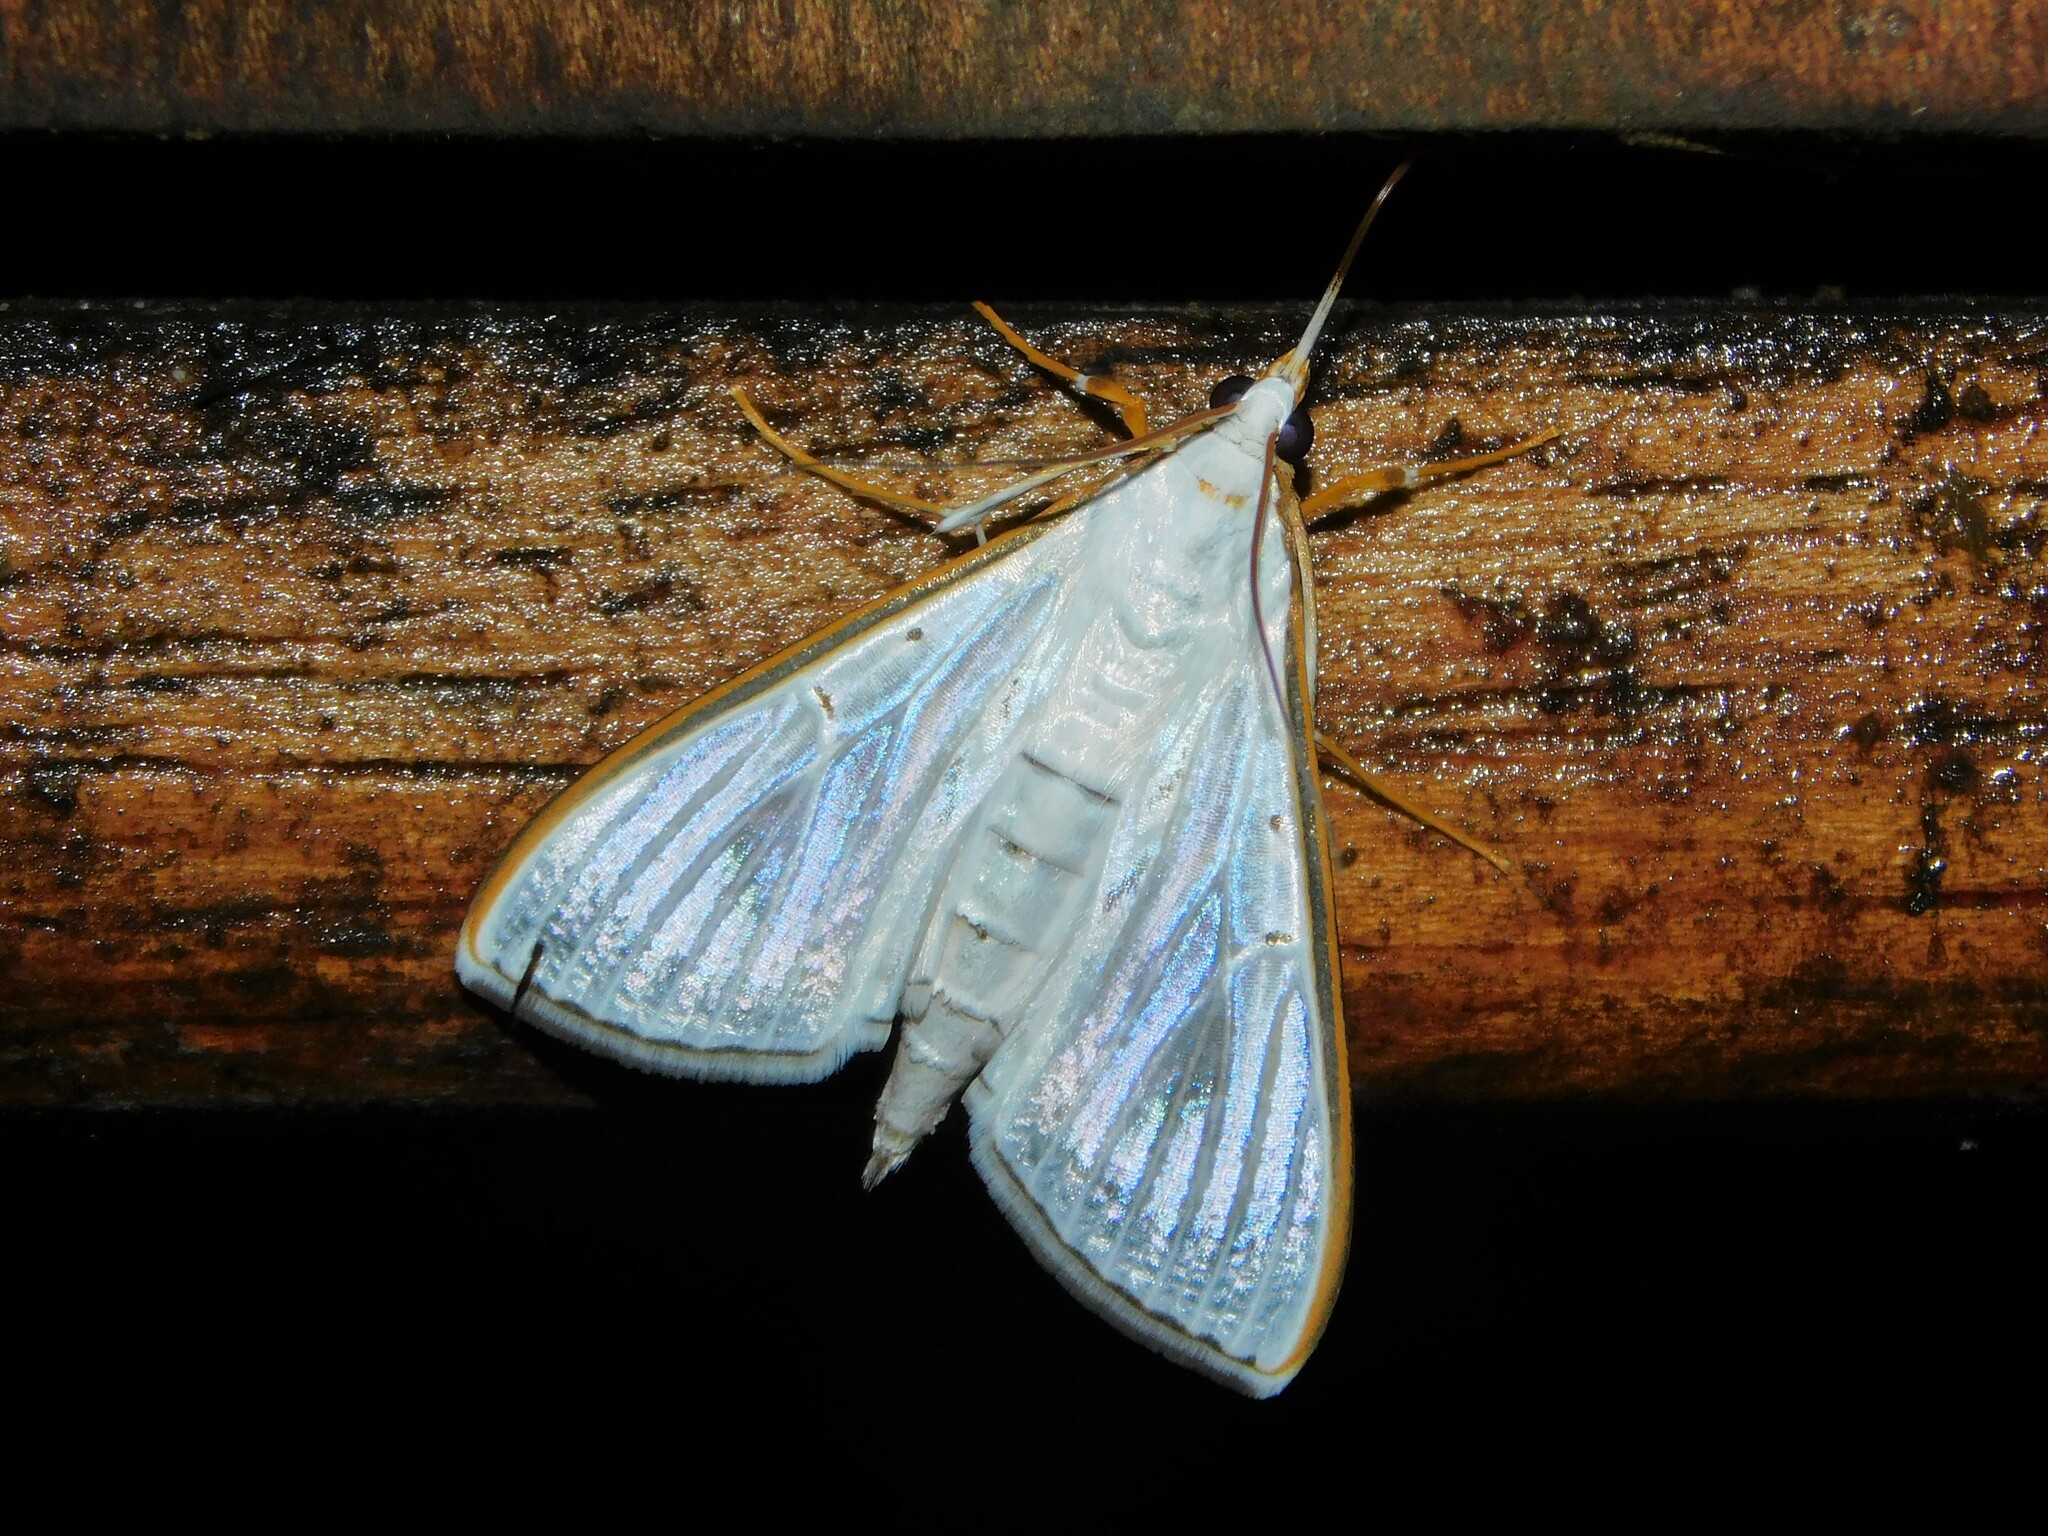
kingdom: Animalia
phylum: Arthropoda
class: Insecta
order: Lepidoptera
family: Crambidae
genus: Palpita
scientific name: Palpita vitrealis
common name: Olive-tree pearl
